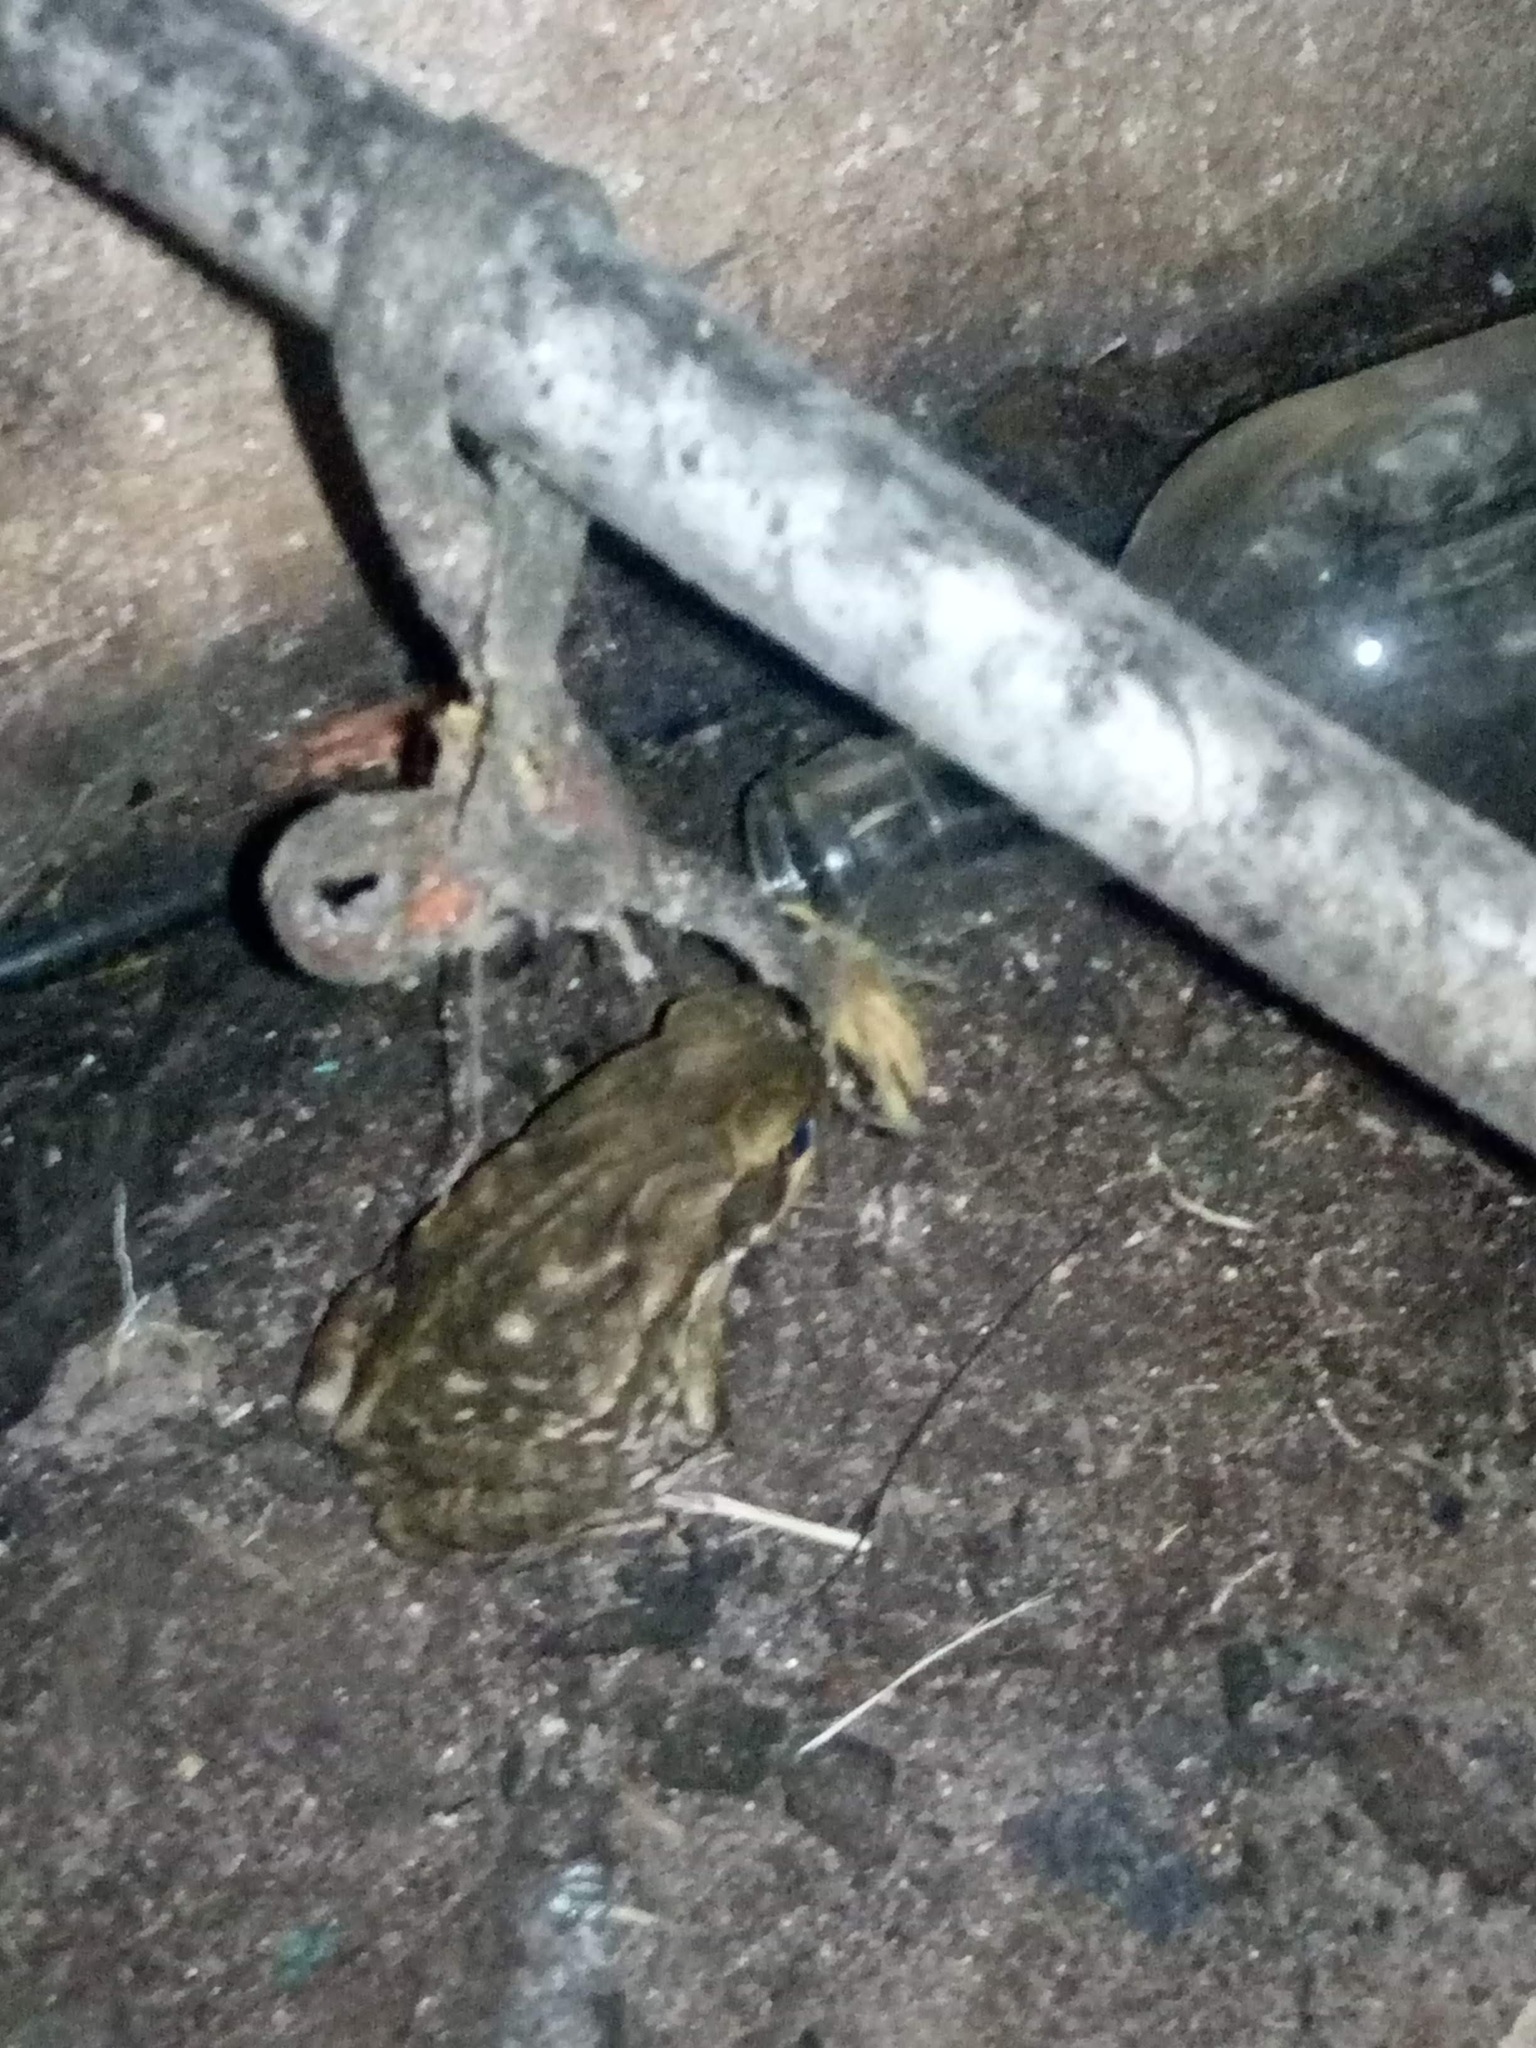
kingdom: Animalia
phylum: Chordata
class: Amphibia
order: Anura
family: Bufonidae
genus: Rhinella
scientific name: Rhinella horribilis
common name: Mesoamerican cane toad
